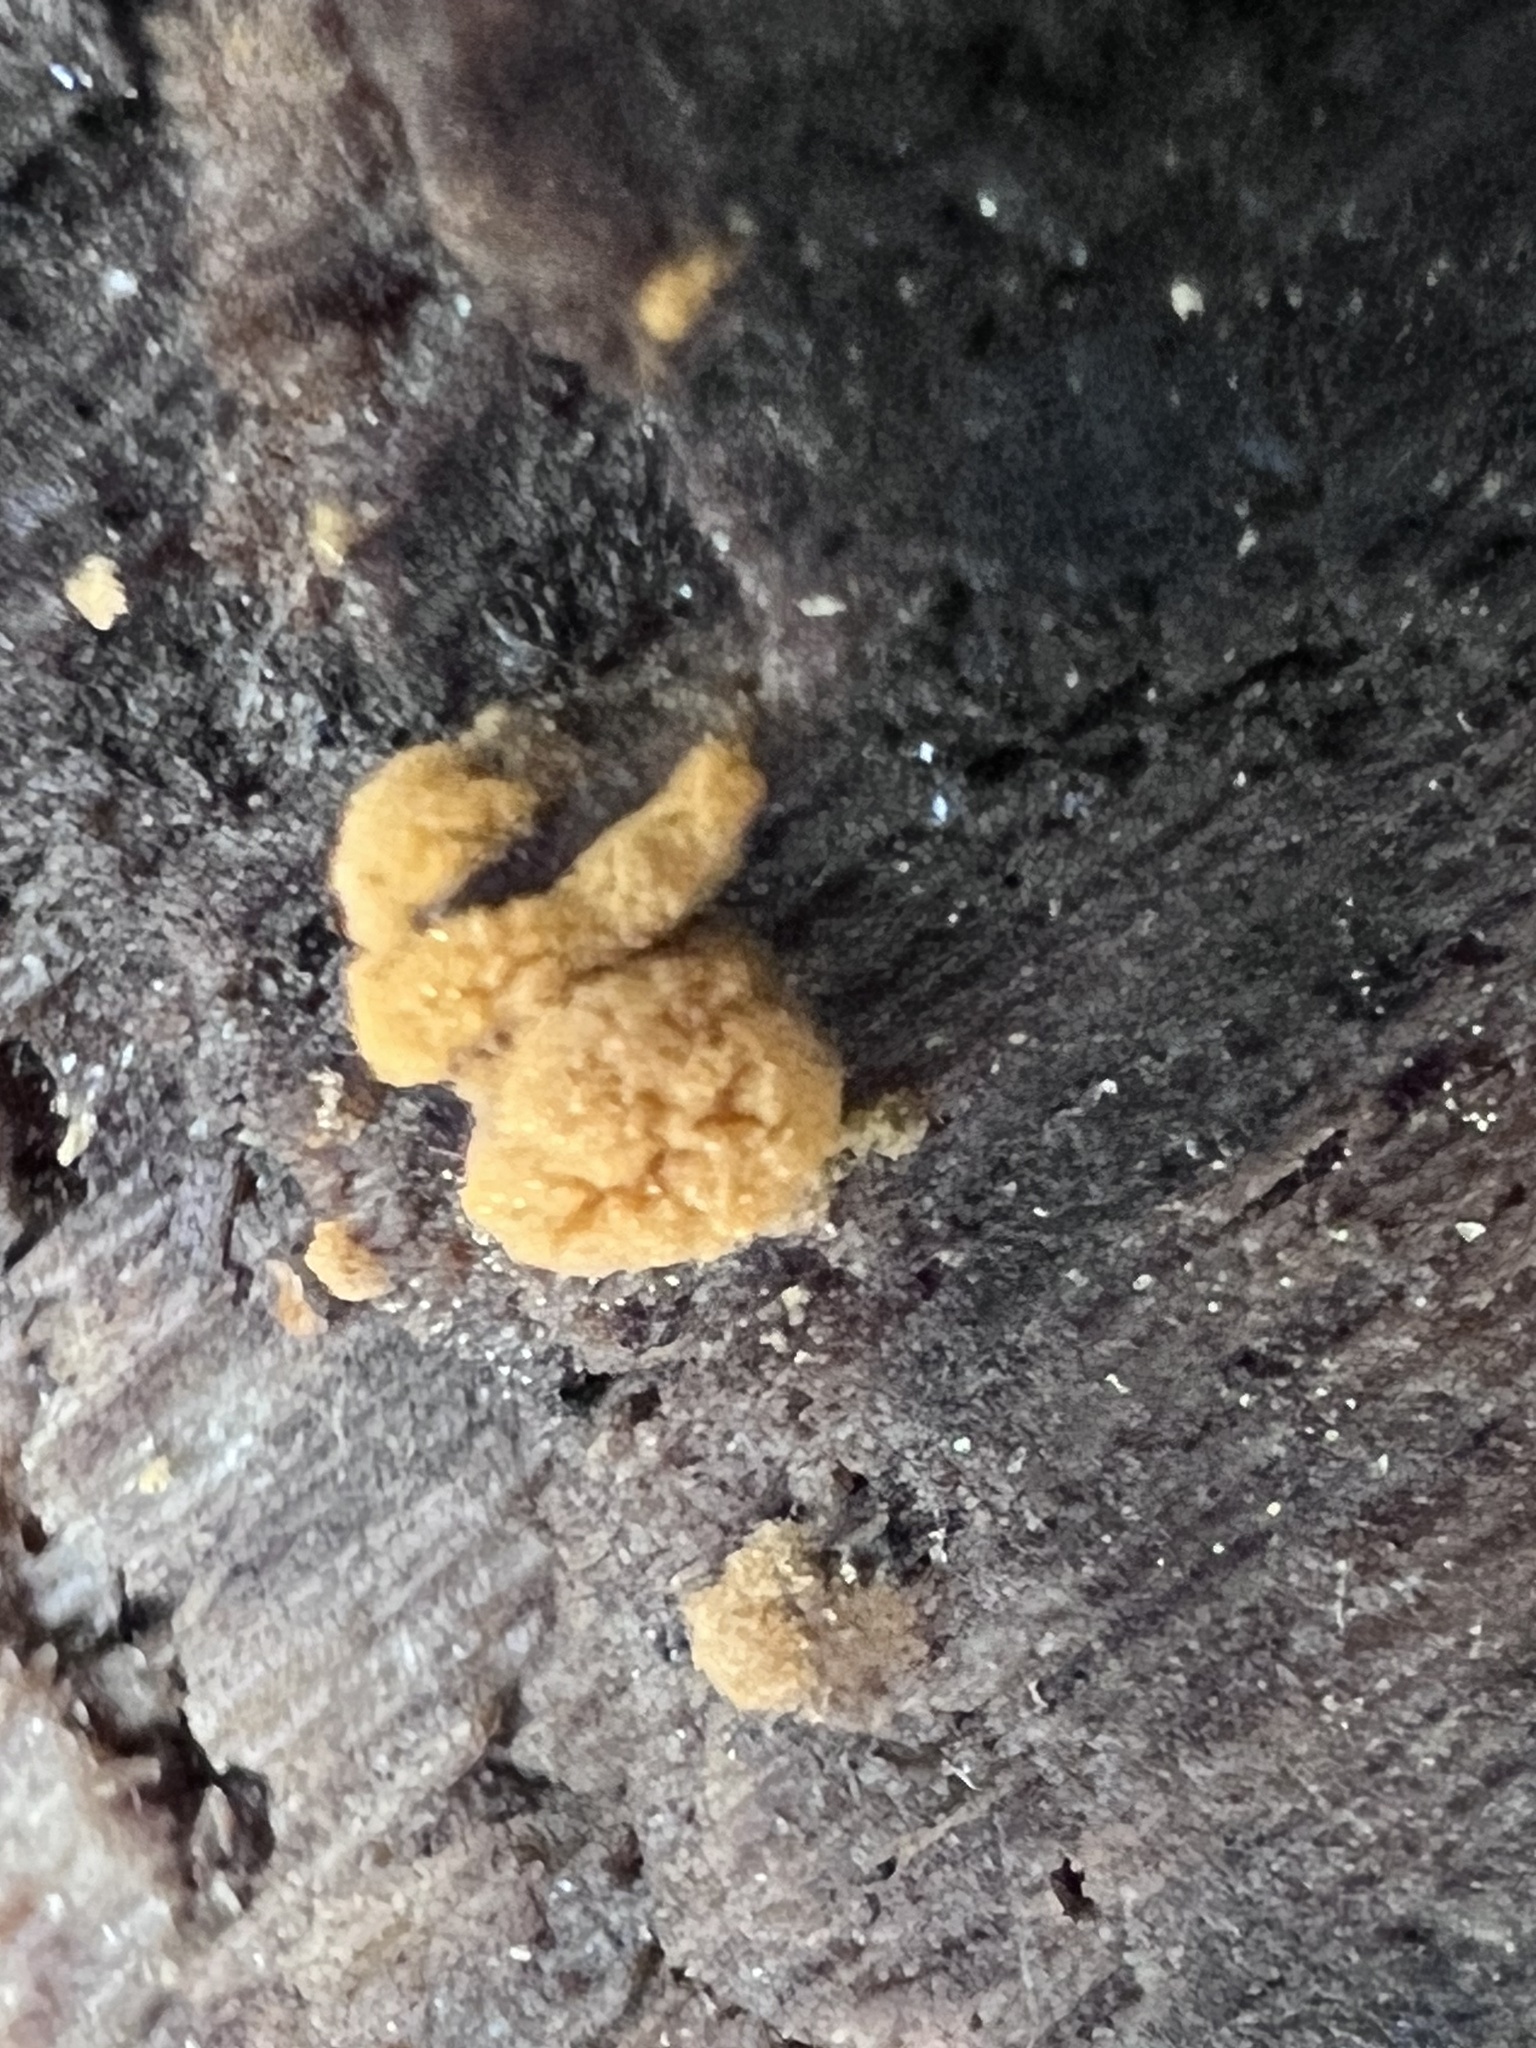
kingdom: Fungi
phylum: Ascomycota
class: Pezizomycetes
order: Pezizales
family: Pyronemataceae
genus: Sphaerosporium
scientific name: Sphaerosporium lignatile
